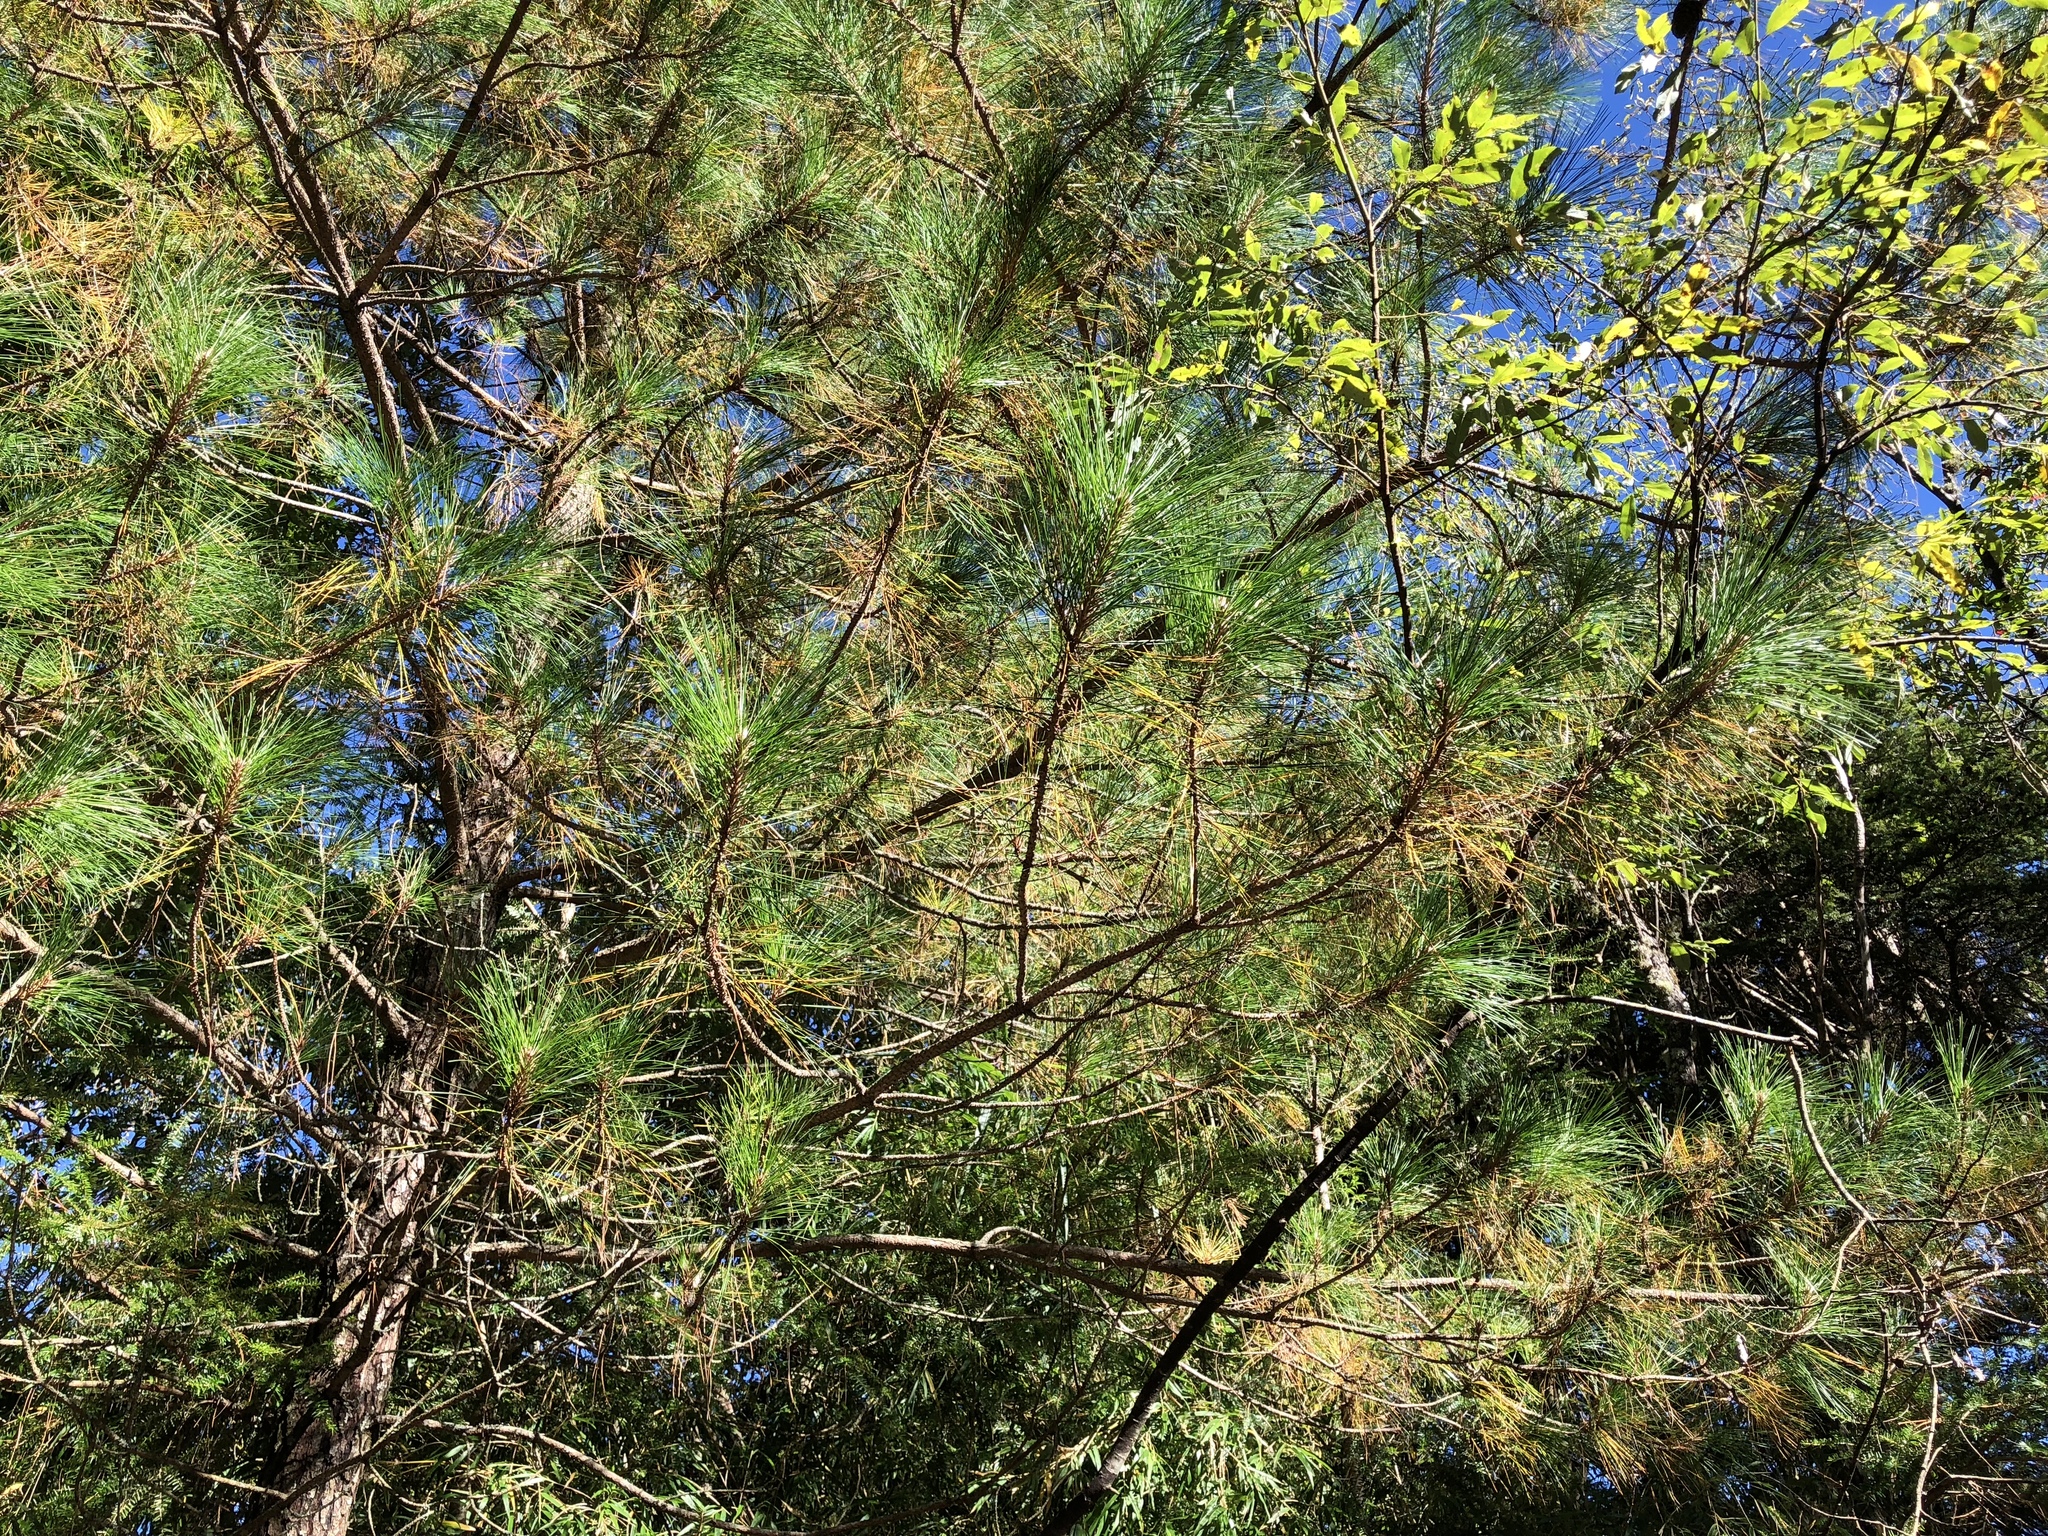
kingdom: Plantae
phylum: Tracheophyta
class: Pinopsida
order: Pinales
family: Pinaceae
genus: Pinus
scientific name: Pinus taiwanensis
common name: Formosa pine
